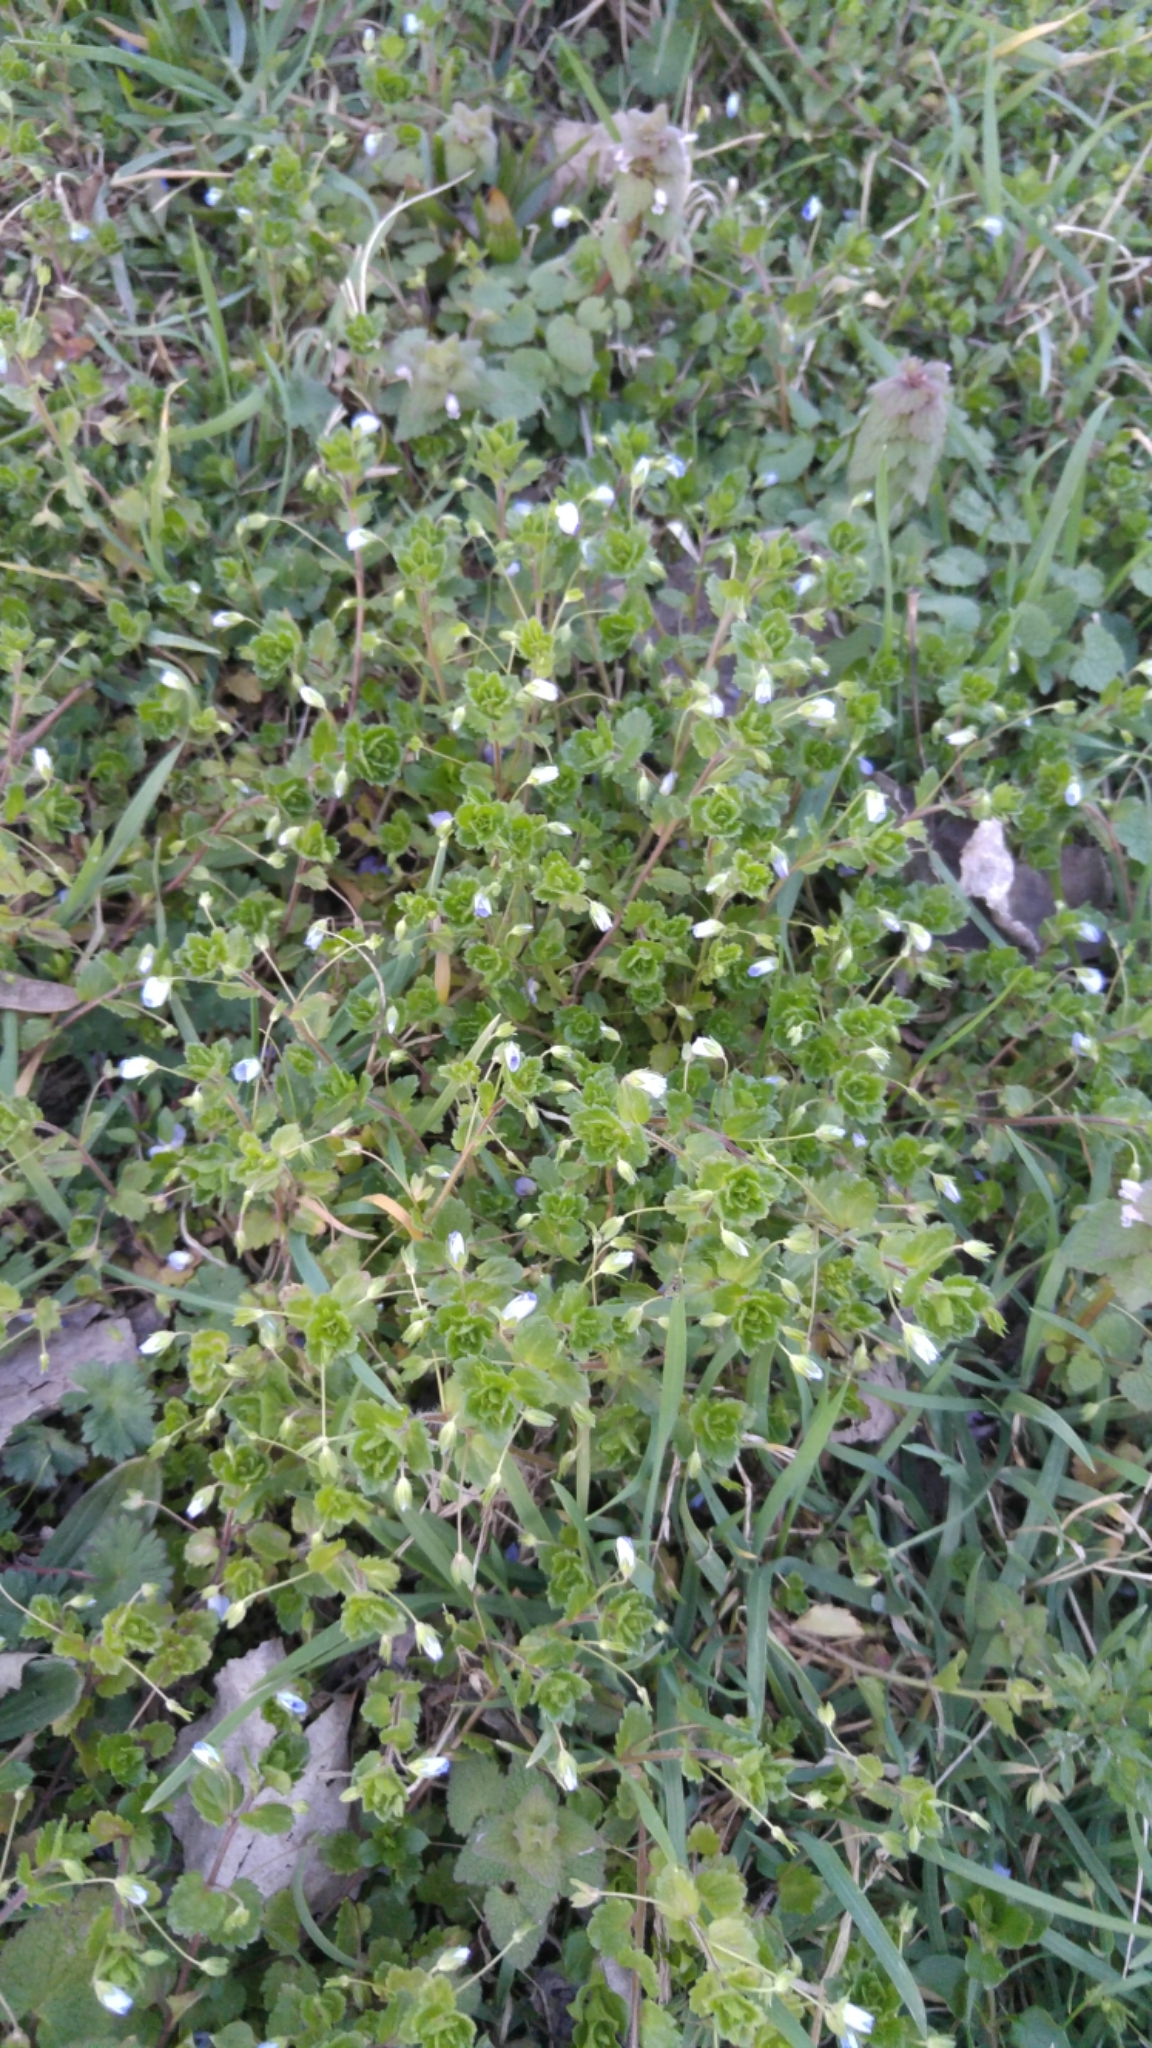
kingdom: Plantae
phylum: Tracheophyta
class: Magnoliopsida
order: Lamiales
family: Plantaginaceae
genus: Veronica
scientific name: Veronica persica
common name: Common field-speedwell
